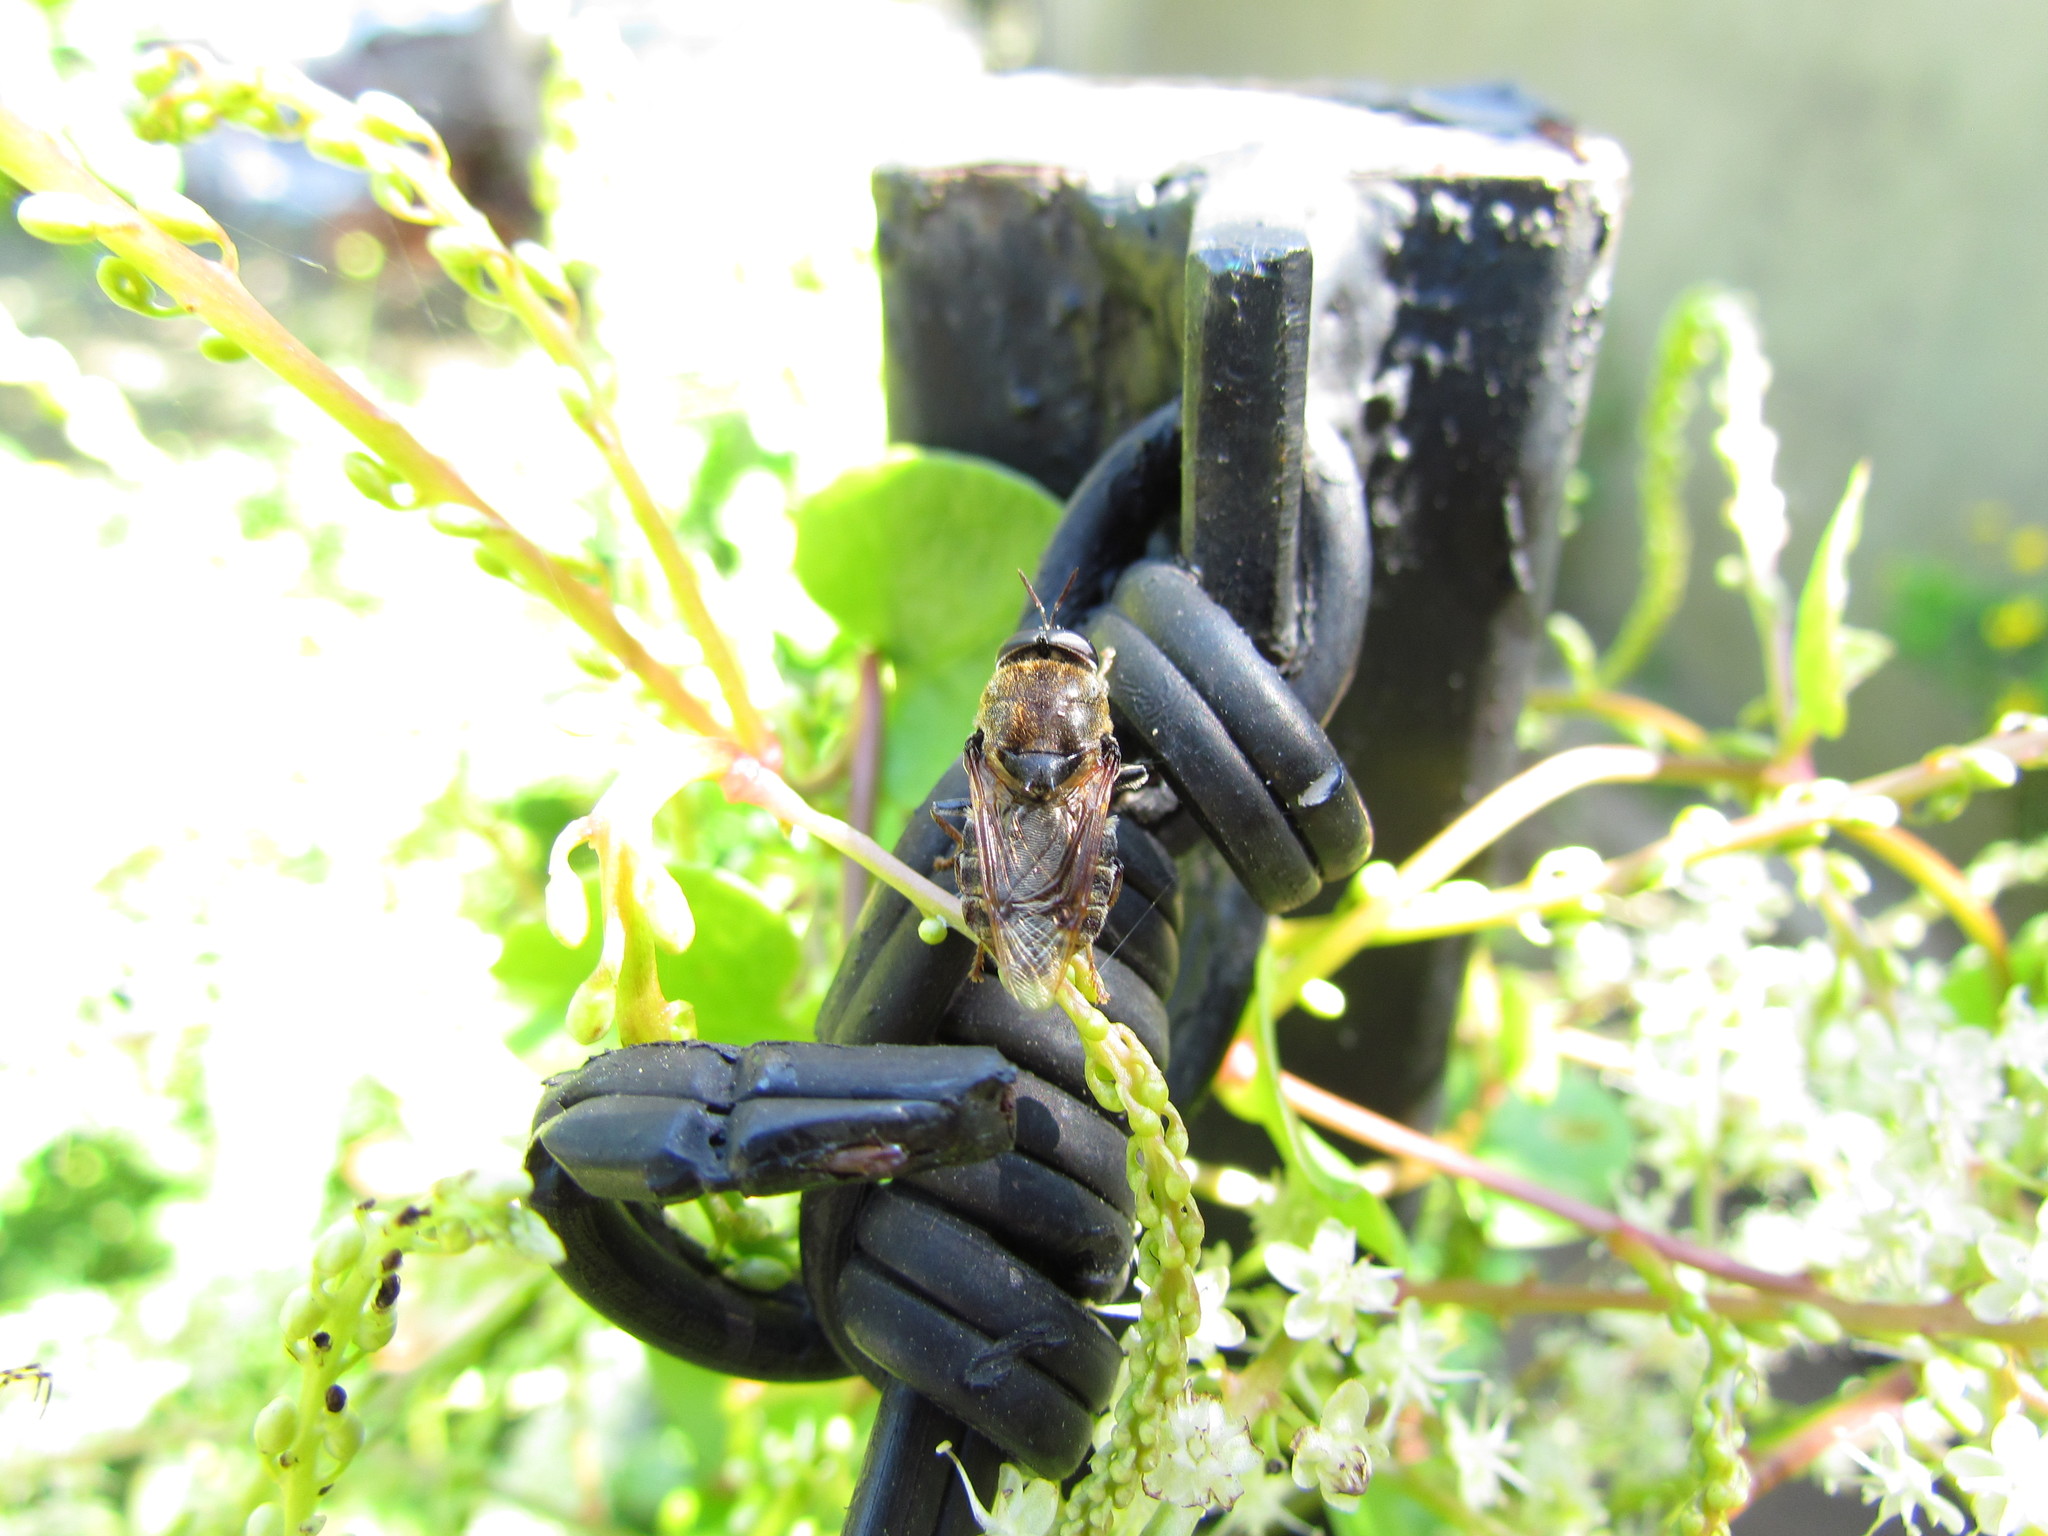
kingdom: Animalia
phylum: Arthropoda
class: Insecta
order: Diptera
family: Stratiomyidae
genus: Stratiomys
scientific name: Stratiomys constricta
